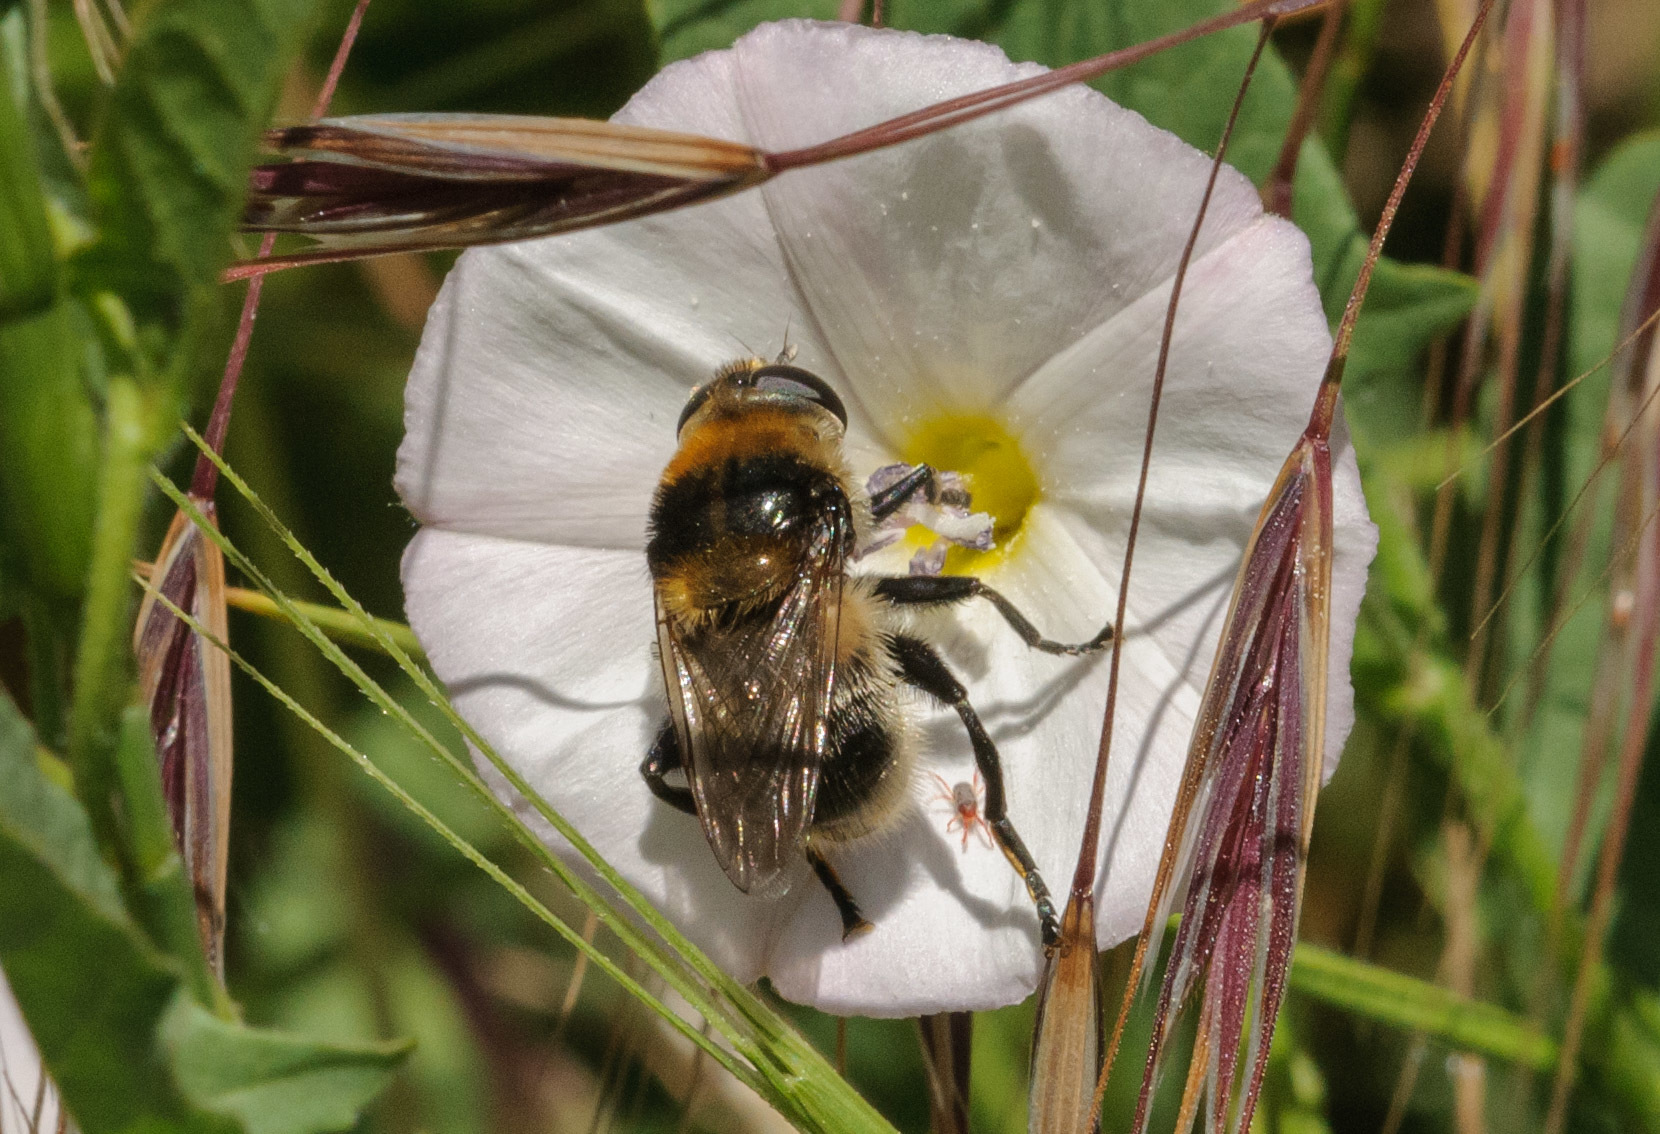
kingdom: Animalia
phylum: Arthropoda
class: Insecta
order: Diptera
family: Syrphidae
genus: Merodon
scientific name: Merodon equestris
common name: Greater bulb-fly
